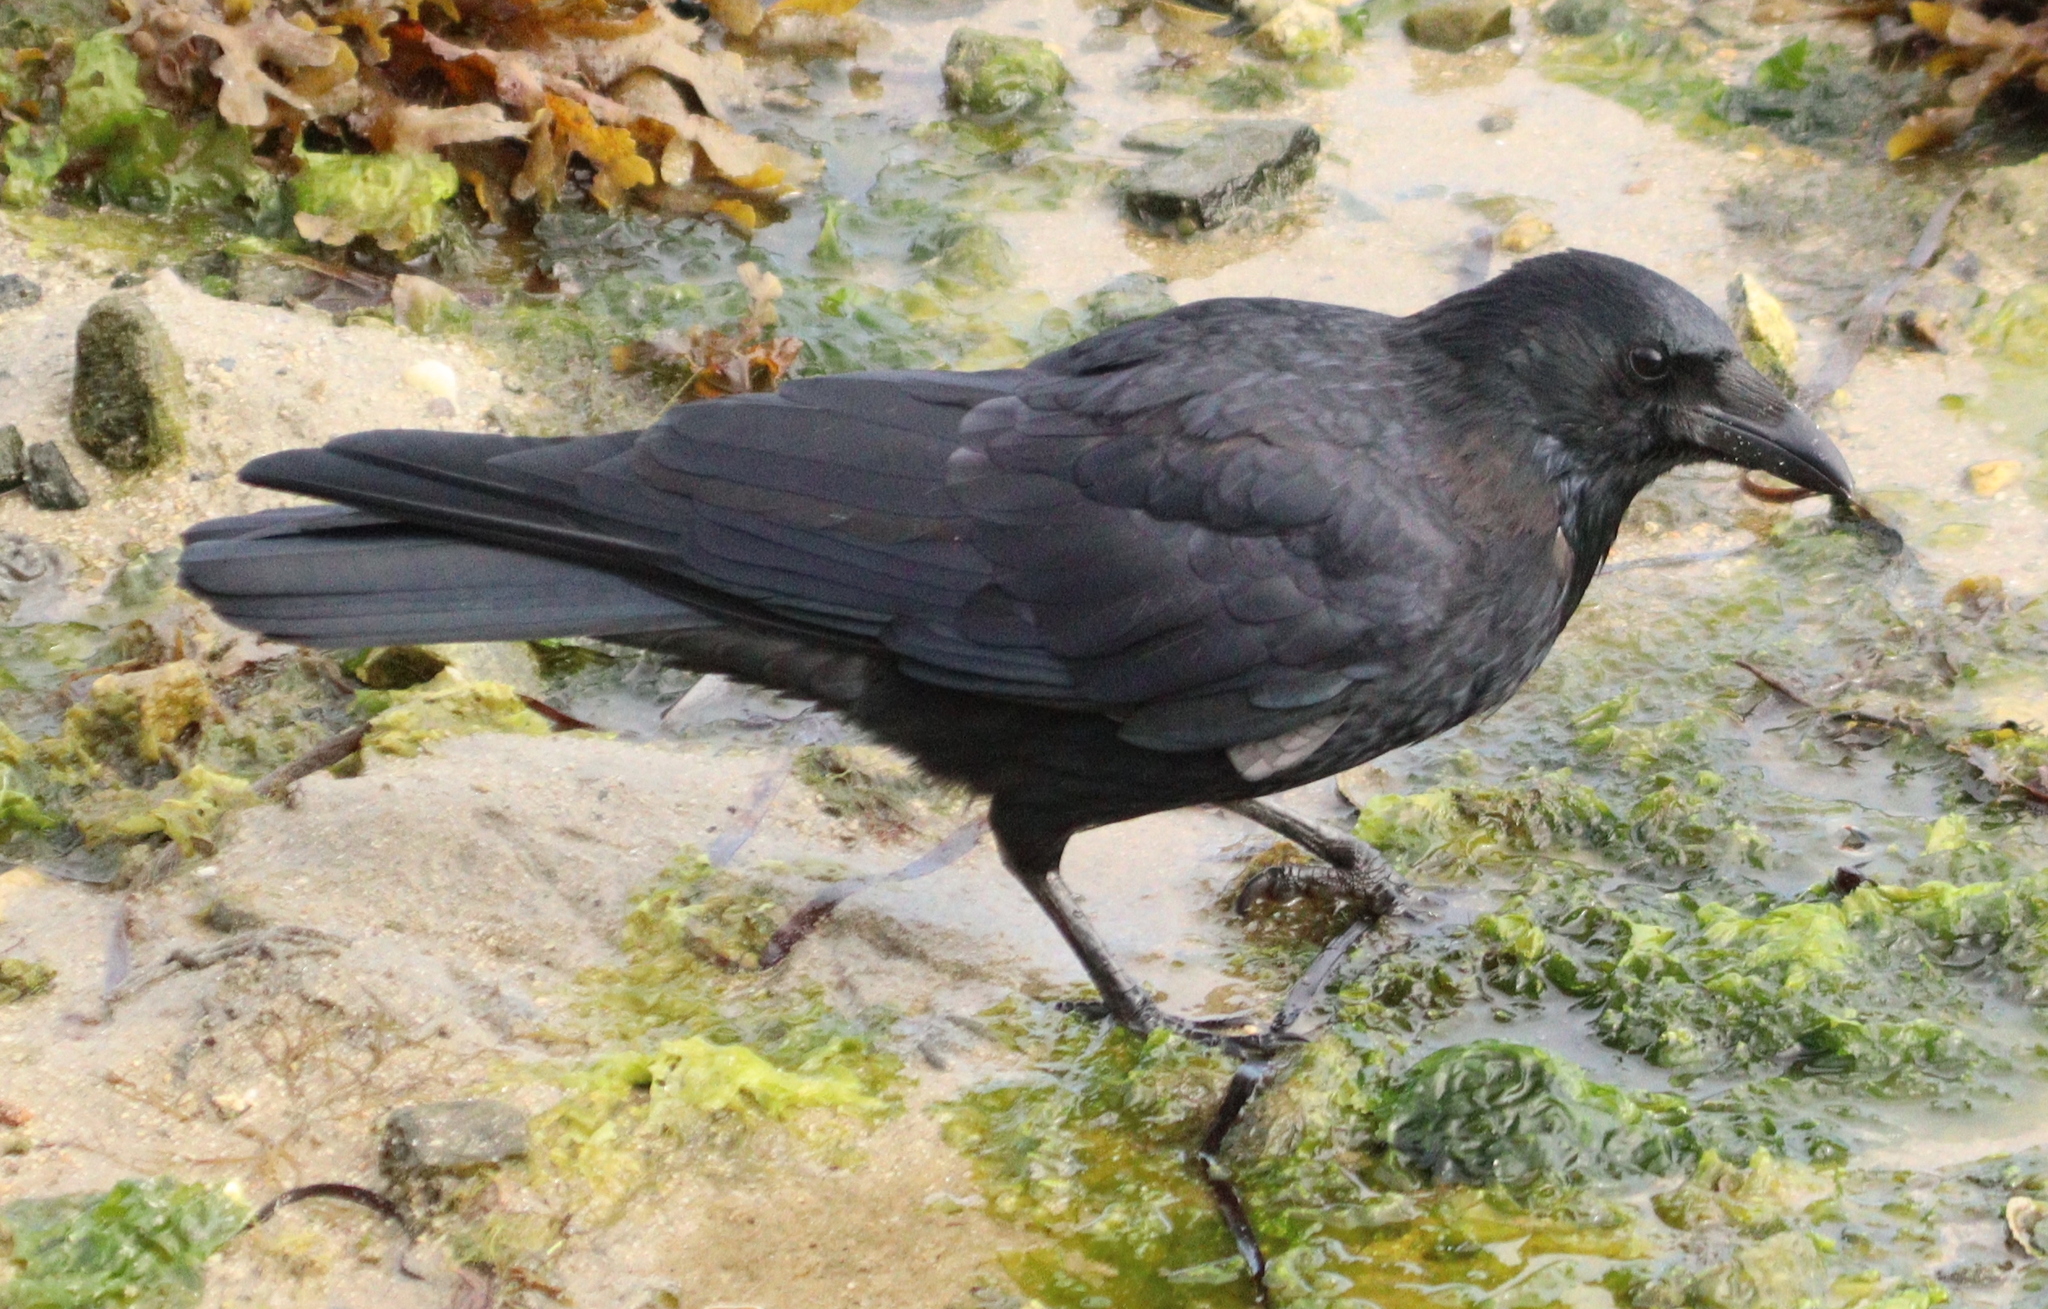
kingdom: Animalia
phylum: Chordata
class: Aves
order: Passeriformes
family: Corvidae
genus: Corvus
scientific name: Corvus corone
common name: Carrion crow
